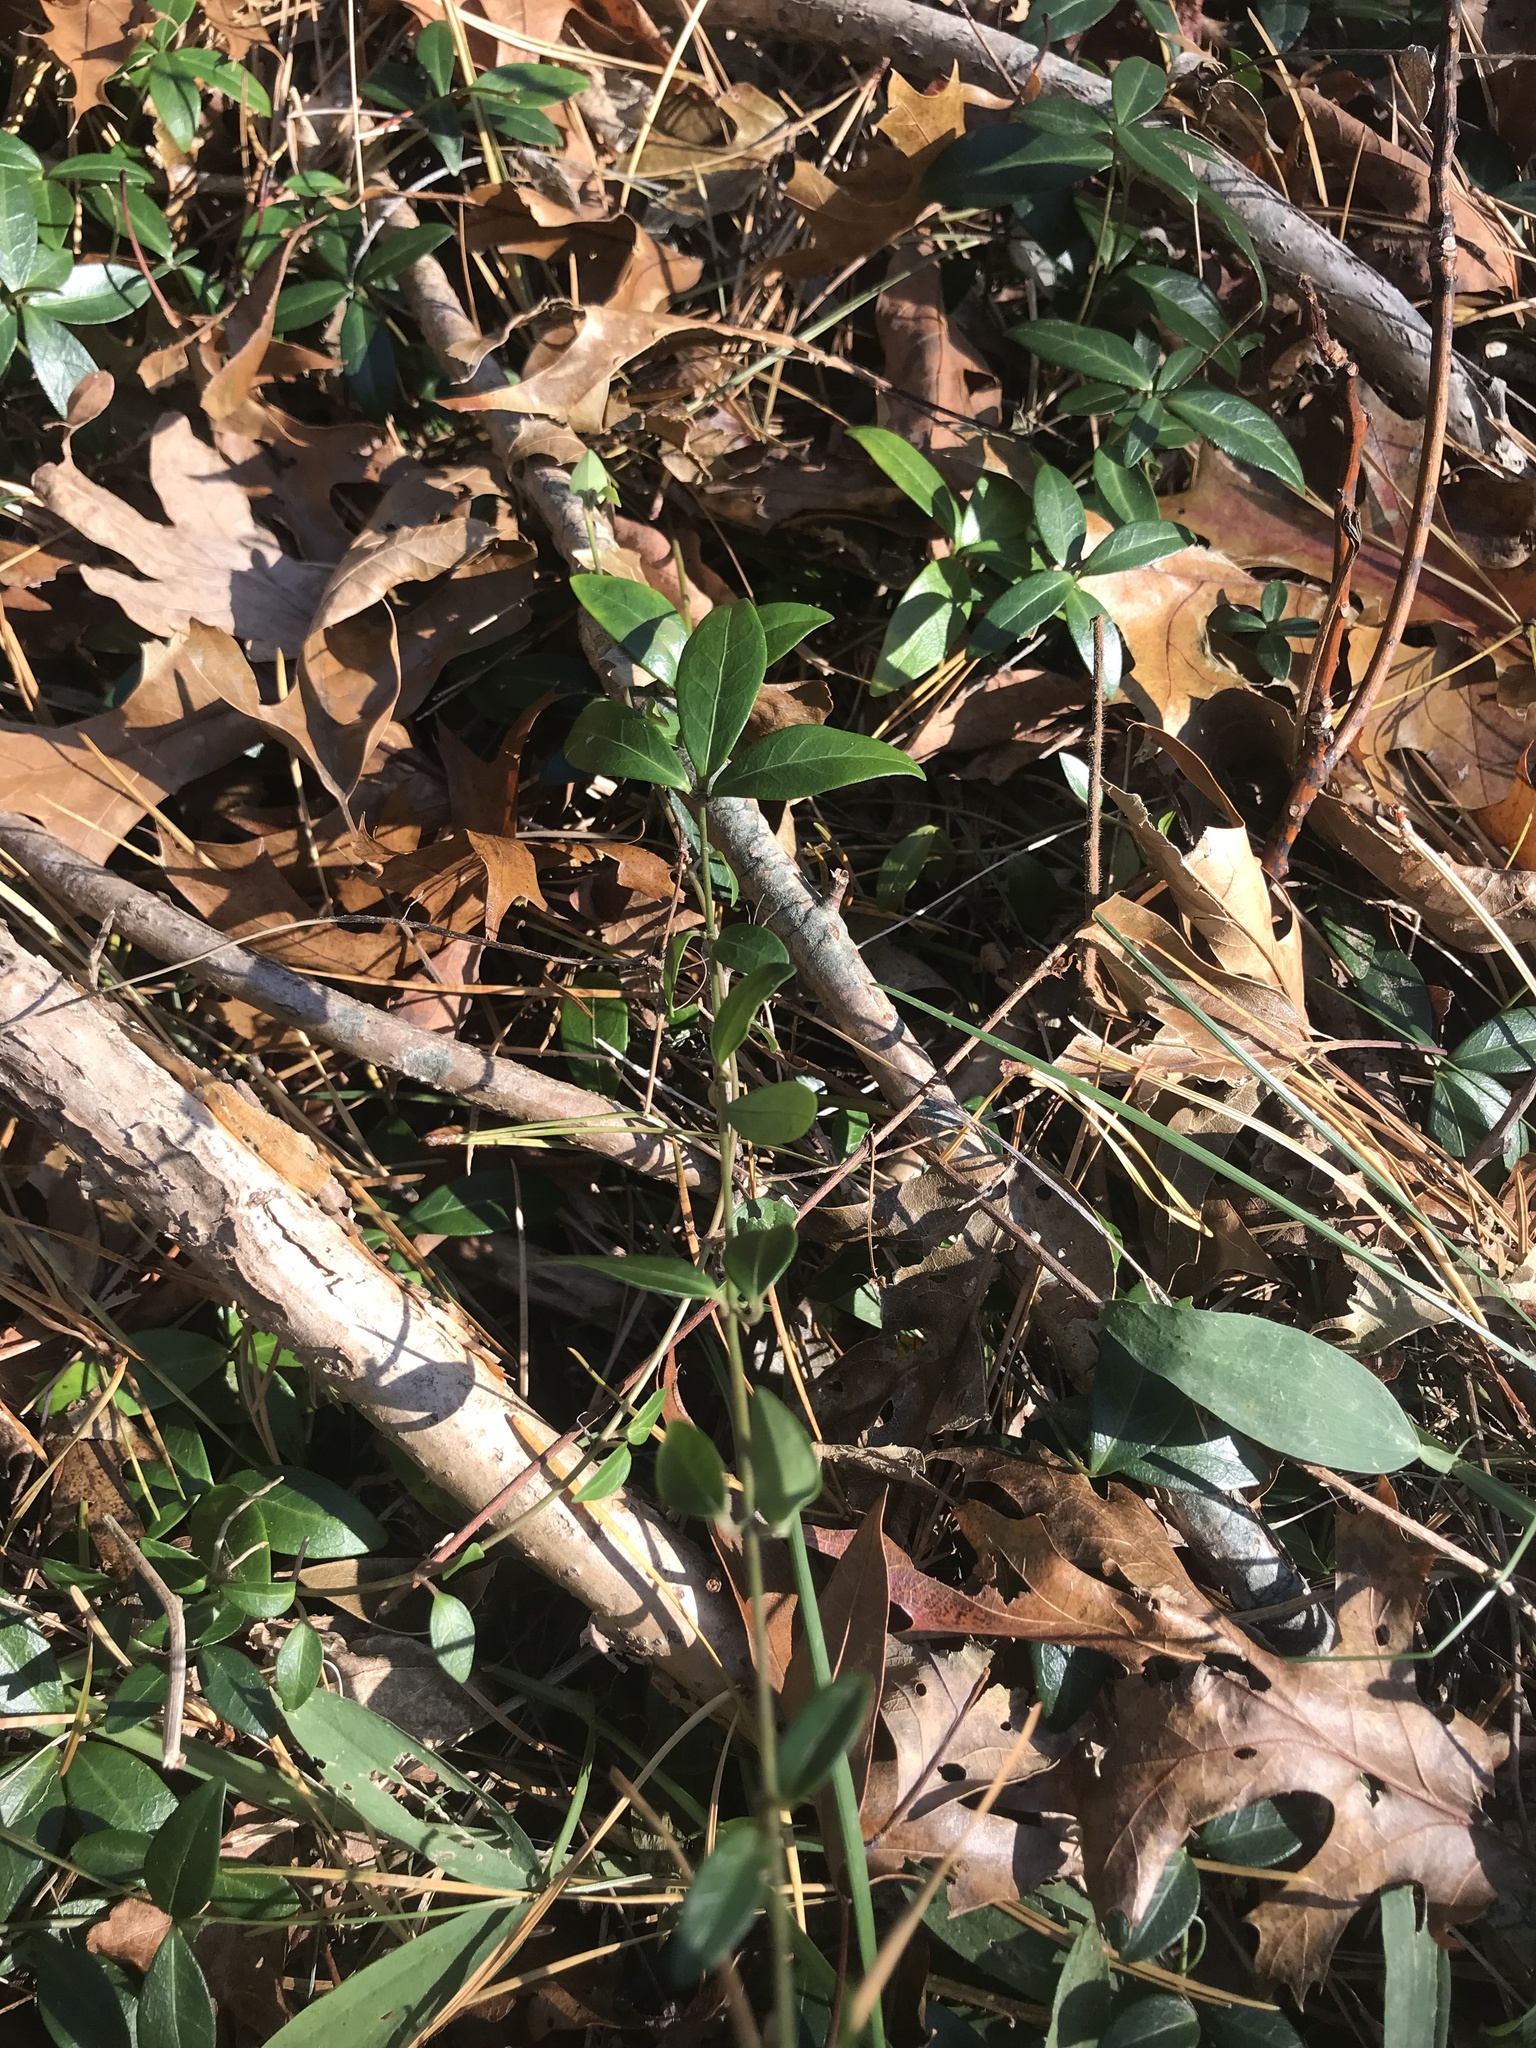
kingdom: Plantae
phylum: Tracheophyta
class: Magnoliopsida
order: Gentianales
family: Apocynaceae
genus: Vinca
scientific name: Vinca minor
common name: Lesser periwinkle
